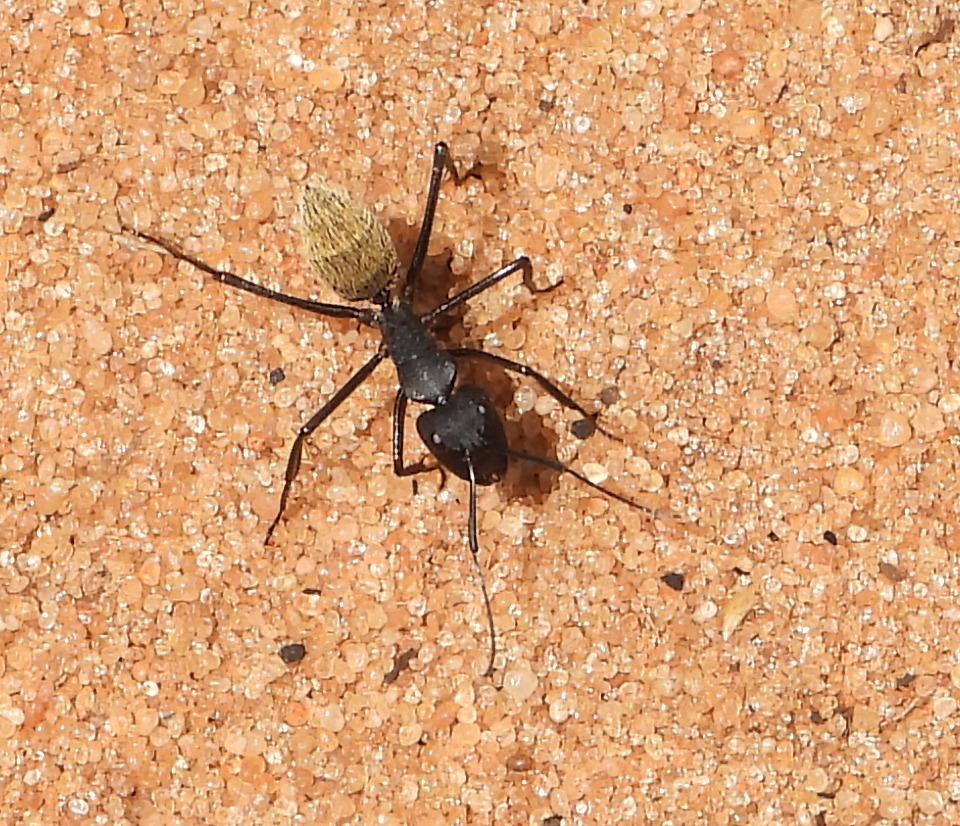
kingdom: Animalia
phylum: Arthropoda
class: Insecta
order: Hymenoptera
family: Formicidae
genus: Camponotus
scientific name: Camponotus fulvopilosus
